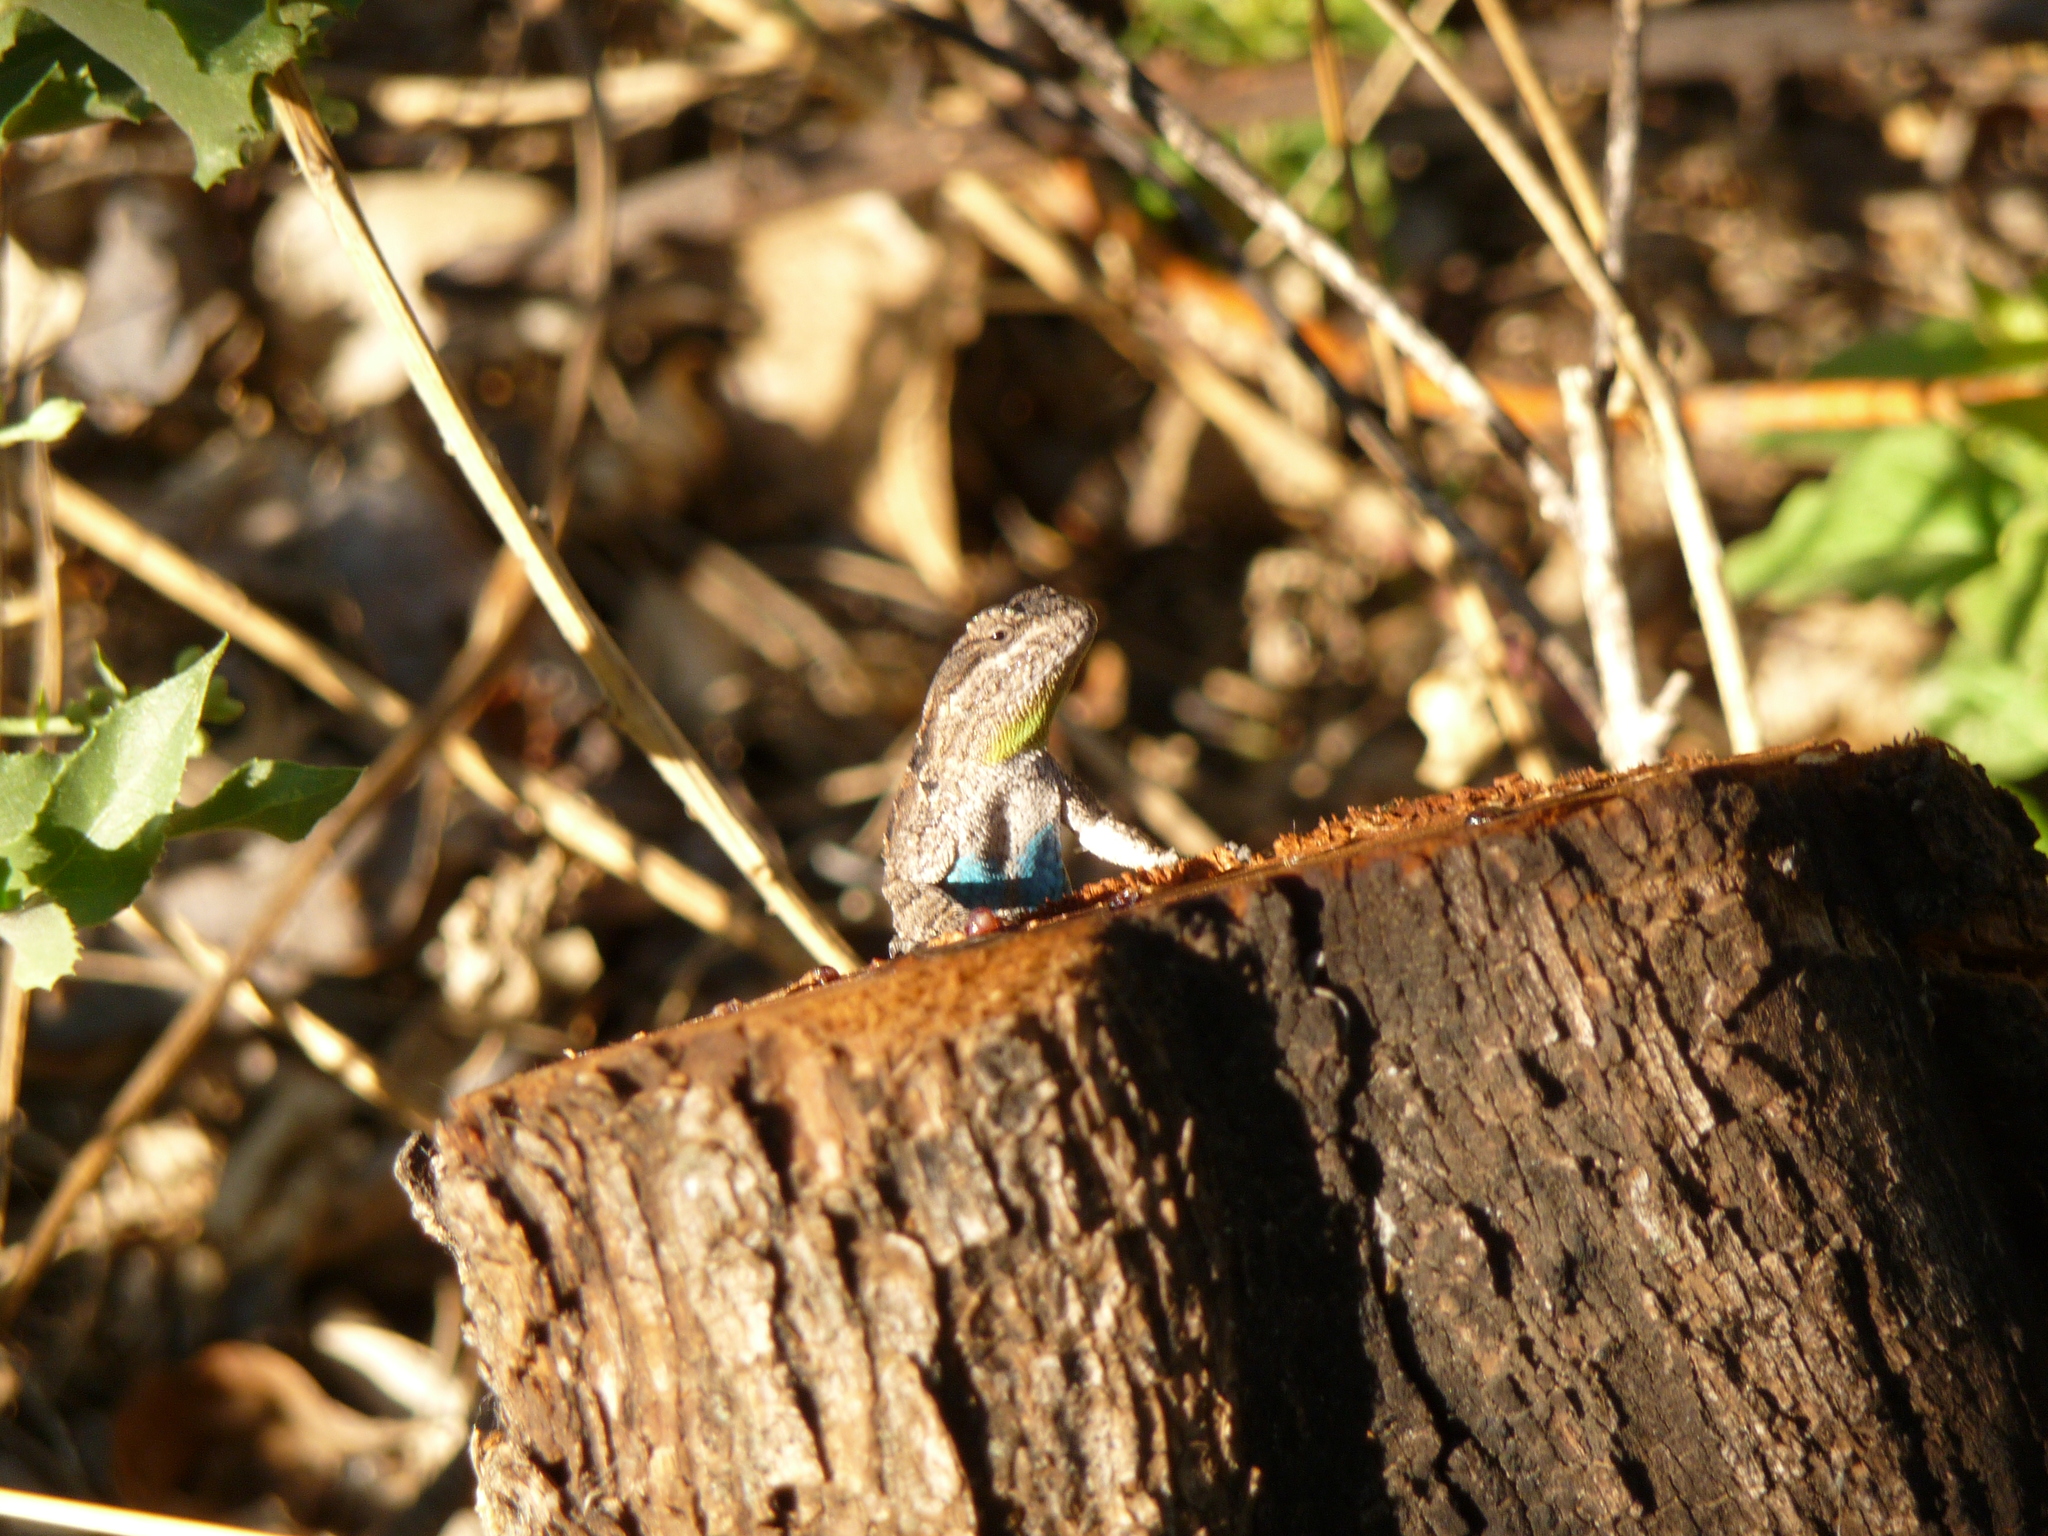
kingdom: Animalia
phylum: Chordata
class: Squamata
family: Phrynosomatidae
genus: Urosaurus
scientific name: Urosaurus ornatus
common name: Ornate tree lizard
